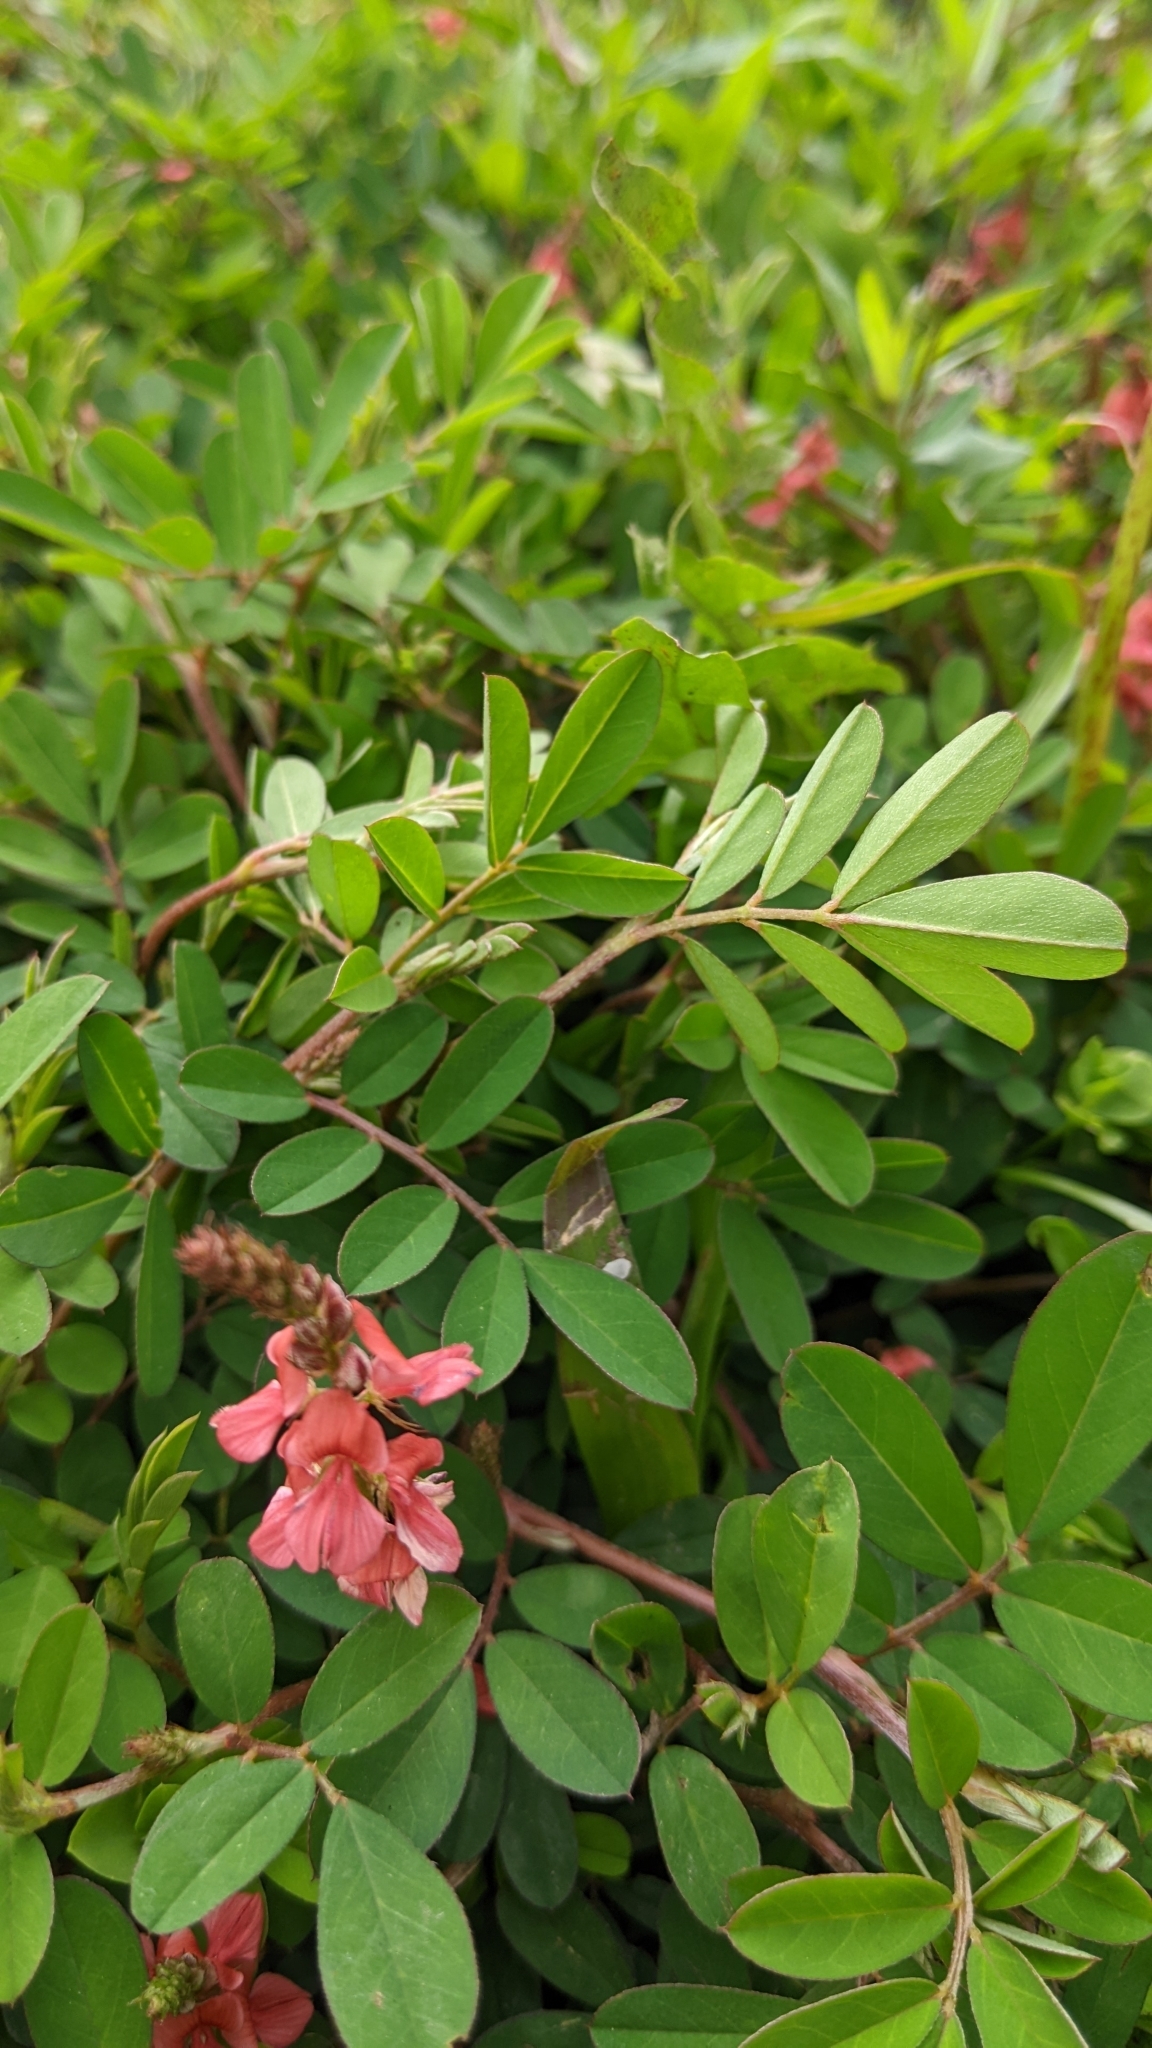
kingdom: Plantae
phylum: Tracheophyta
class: Magnoliopsida
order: Fabales
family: Fabaceae
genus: Indigofera
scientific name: Indigofera hendecaphylla
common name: Trailing indigo
